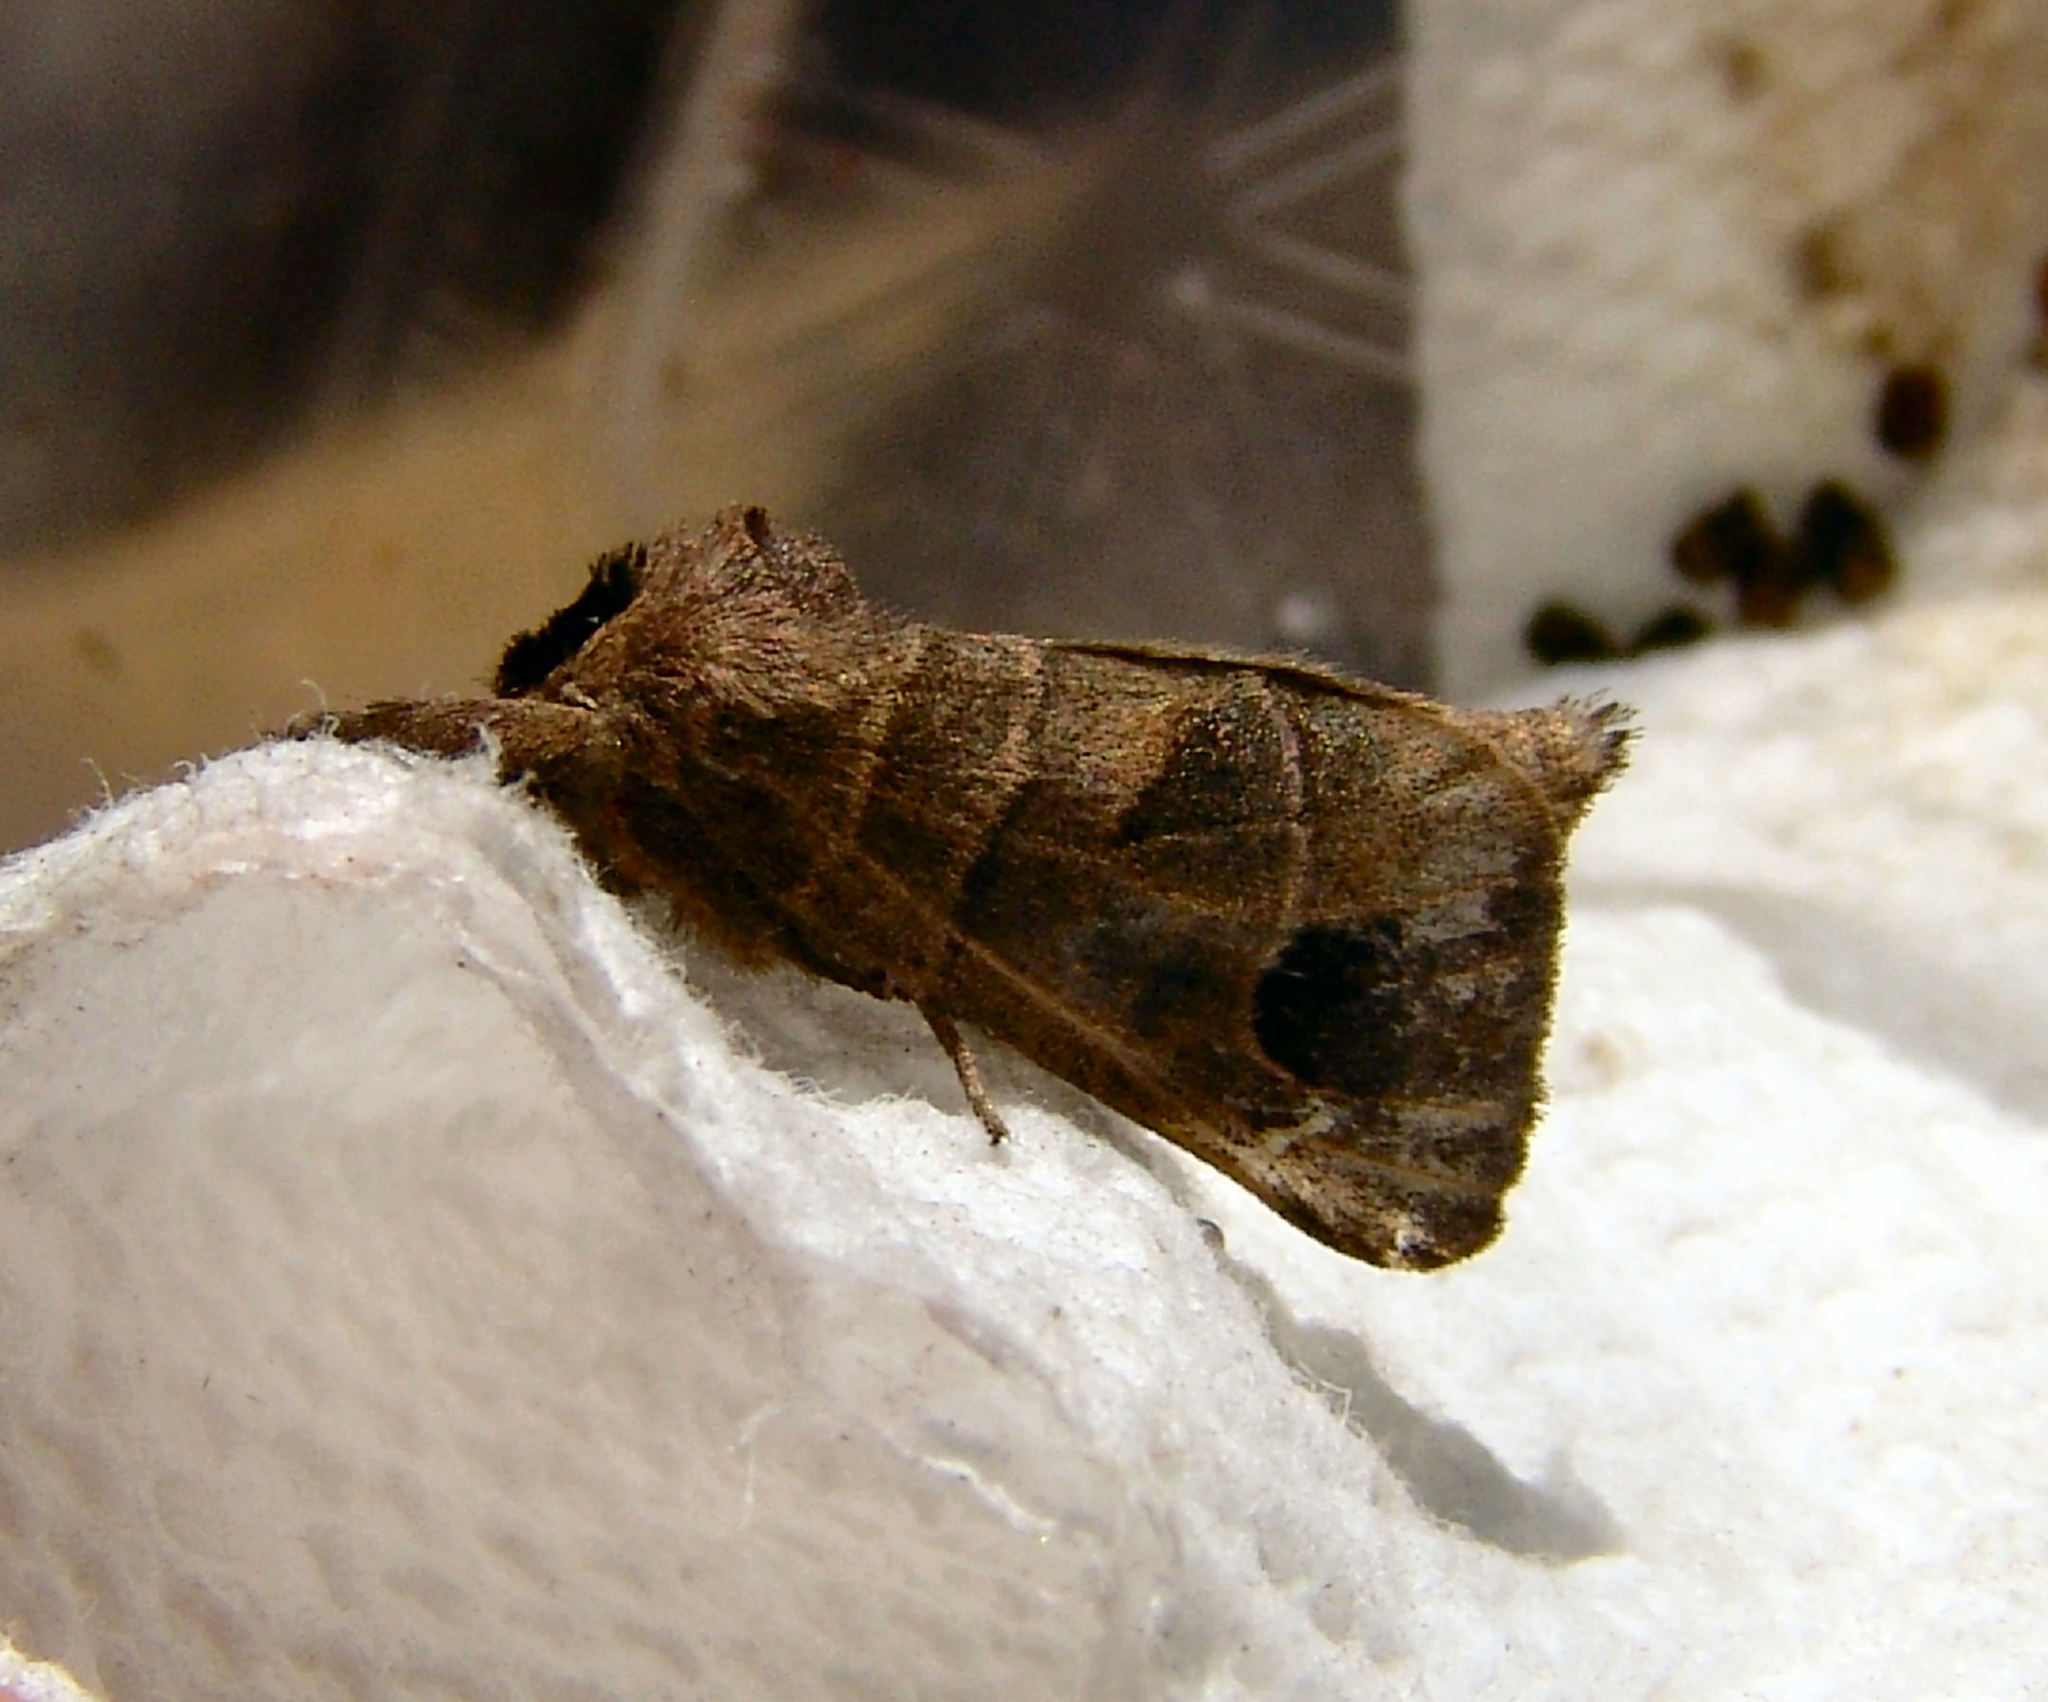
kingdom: Animalia
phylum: Arthropoda
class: Insecta
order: Lepidoptera
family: Notodontidae
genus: Clostera
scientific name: Clostera albosigma
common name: Sigmoid prominent
